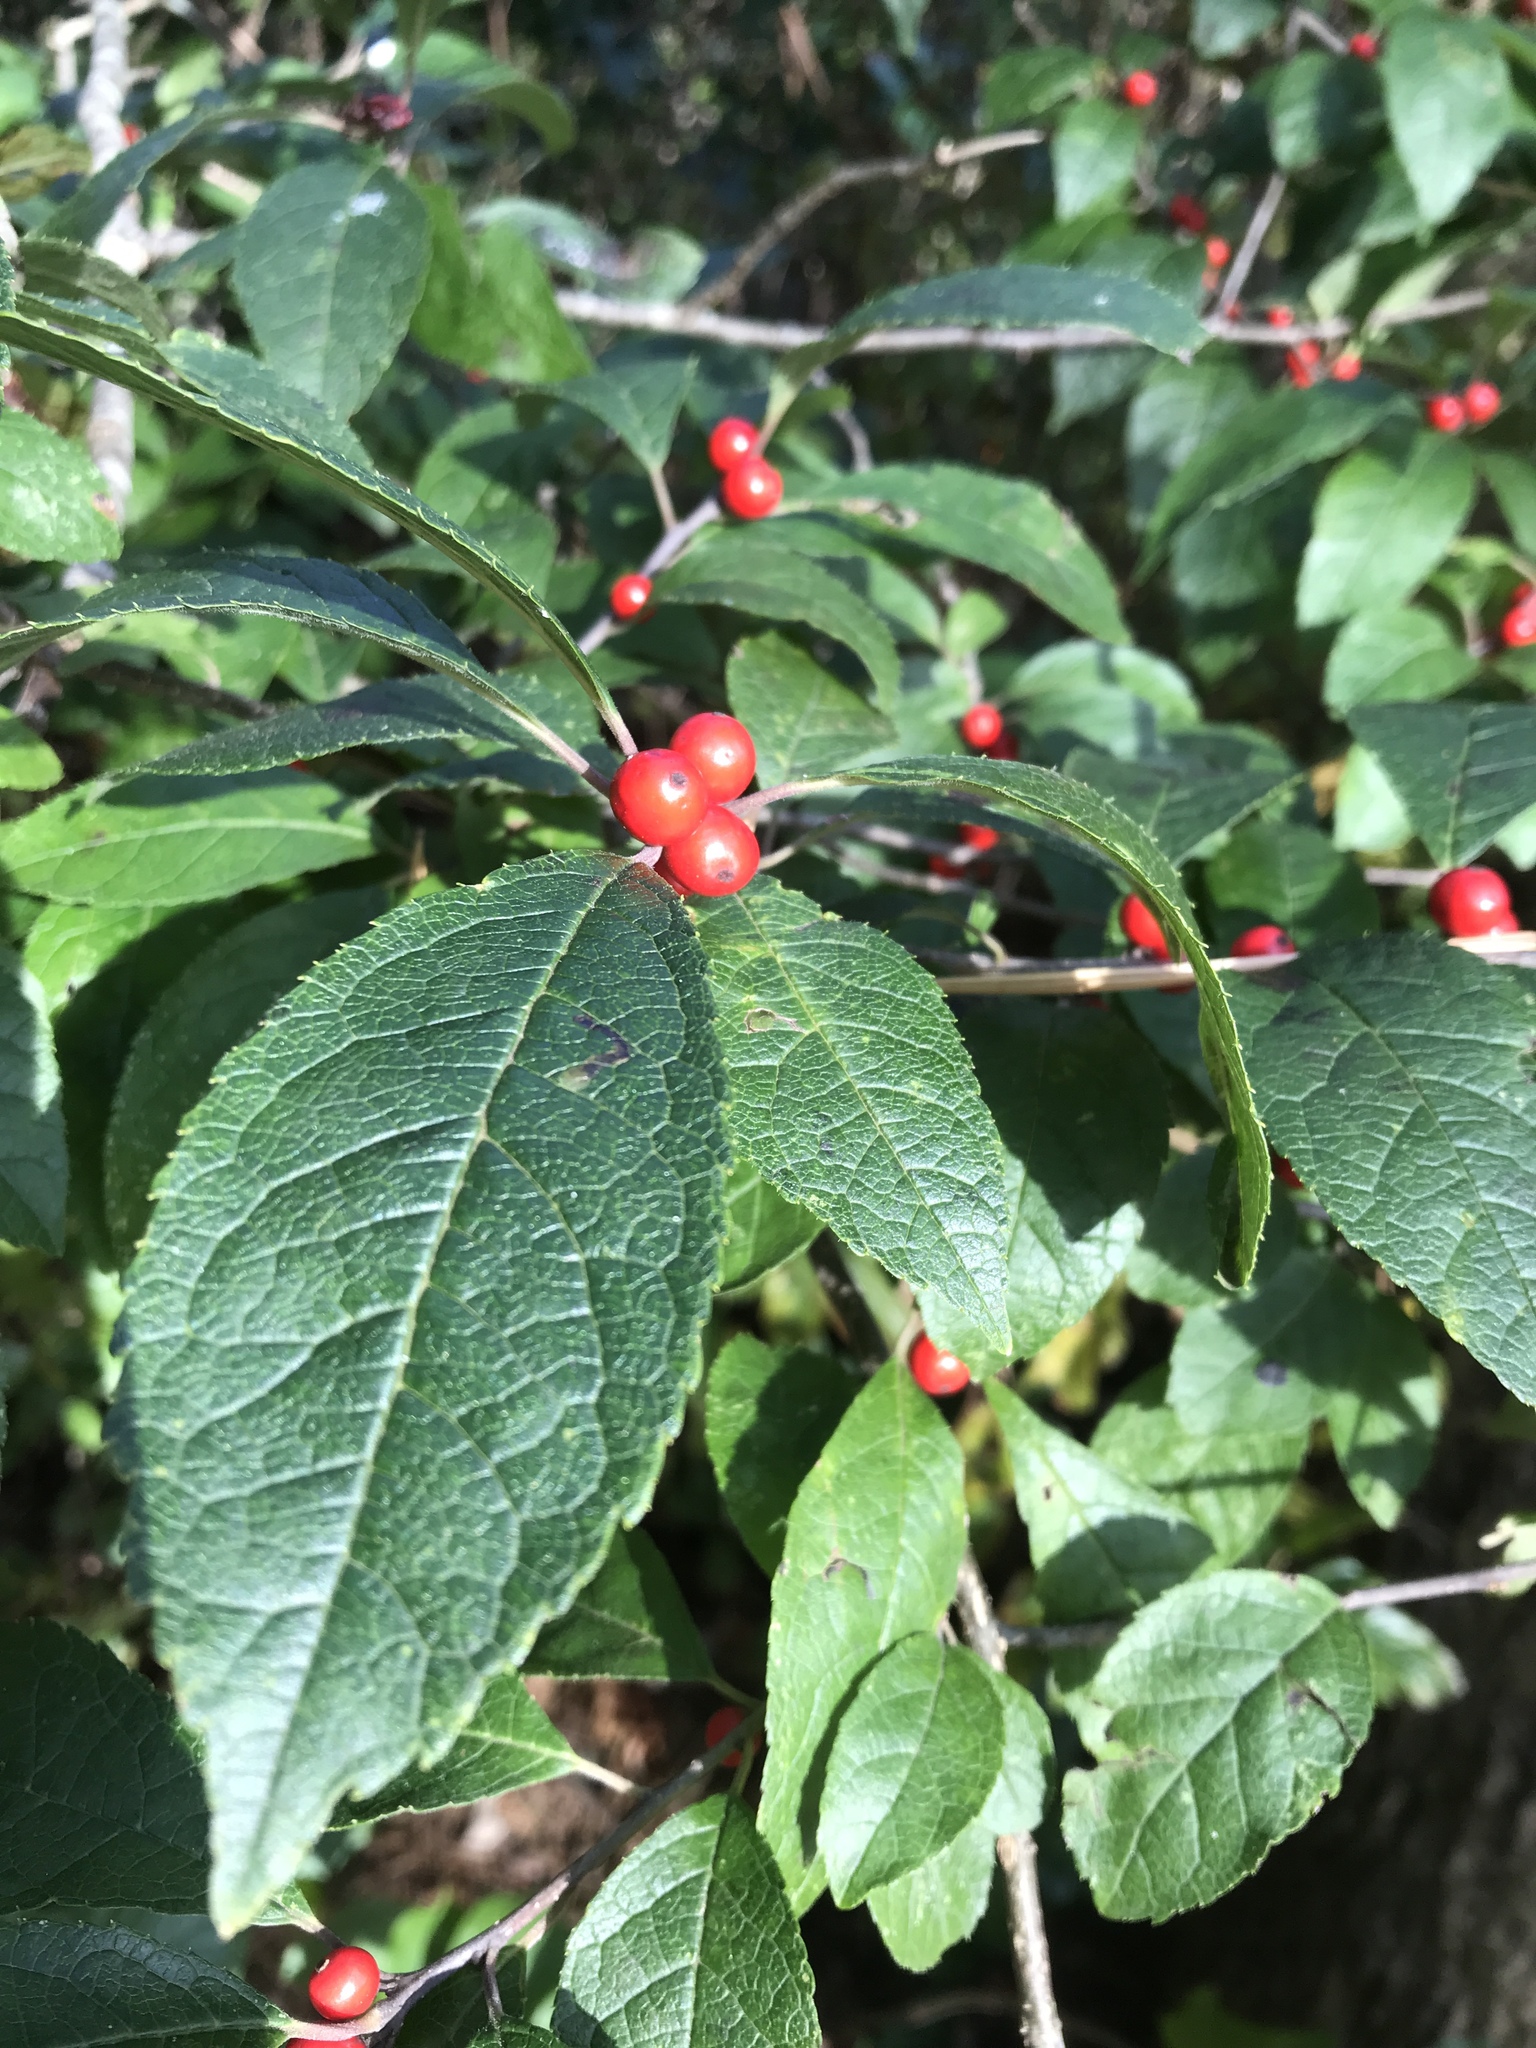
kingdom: Plantae
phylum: Tracheophyta
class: Magnoliopsida
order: Aquifoliales
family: Aquifoliaceae
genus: Ilex
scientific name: Ilex verticillata
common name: Virginia winterberry
